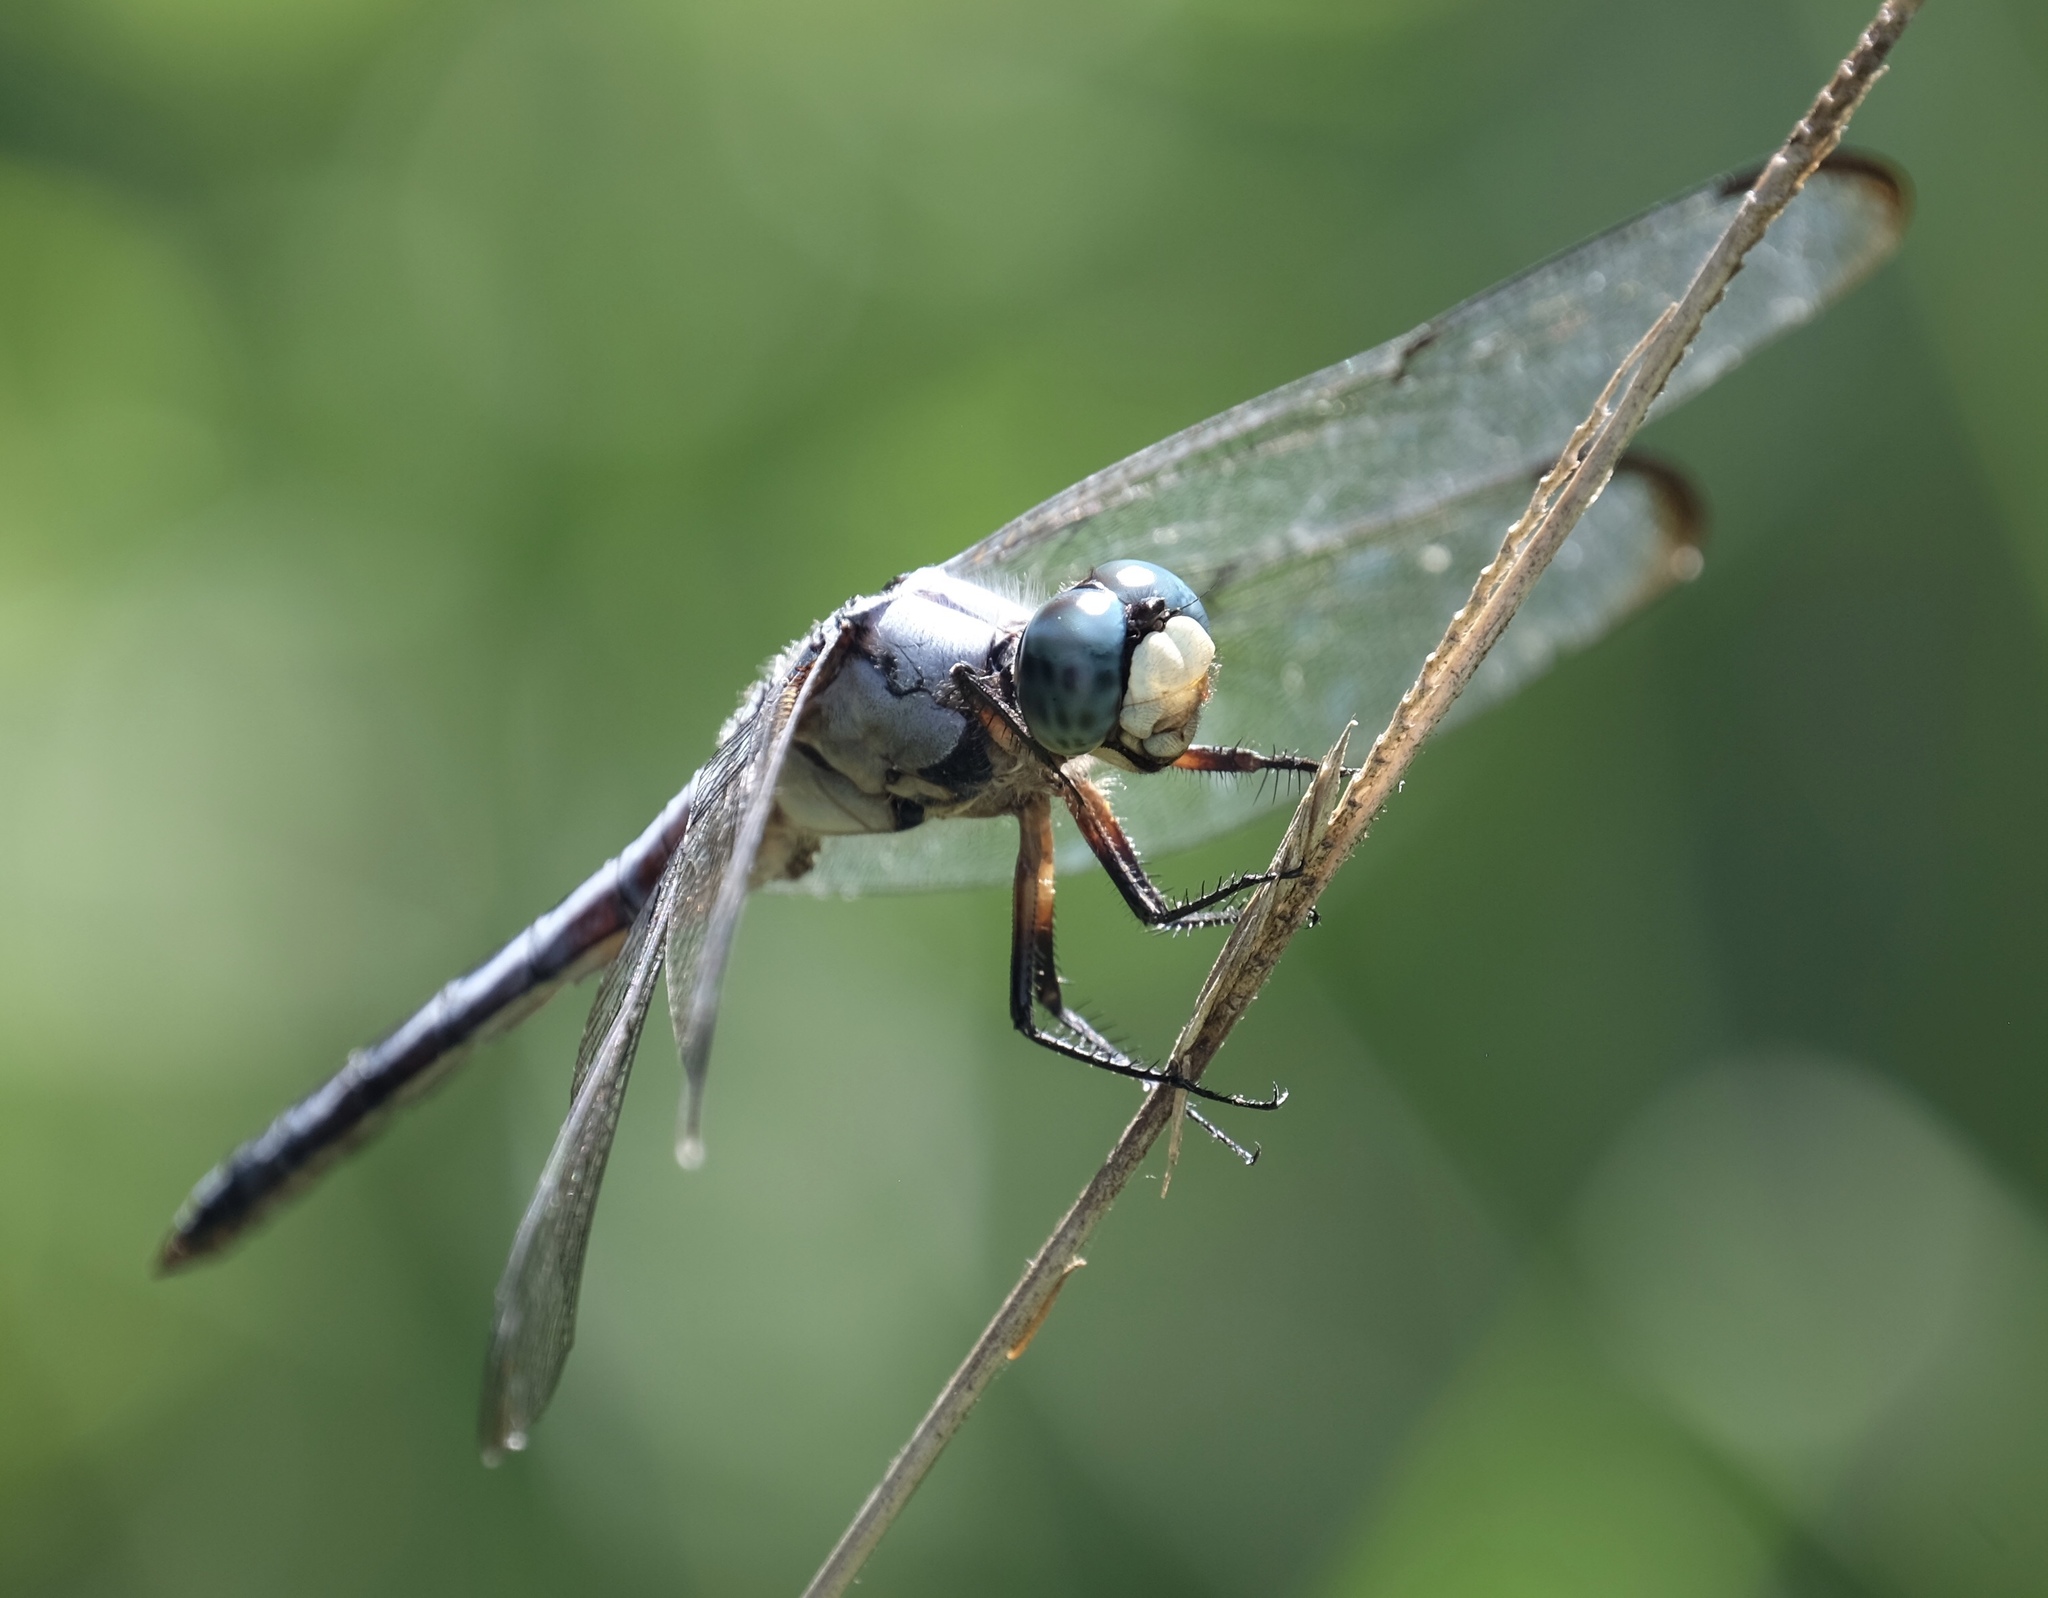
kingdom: Animalia
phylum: Arthropoda
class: Insecta
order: Odonata
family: Libellulidae
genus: Libellula
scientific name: Libellula vibrans
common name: Great blue skimmer
